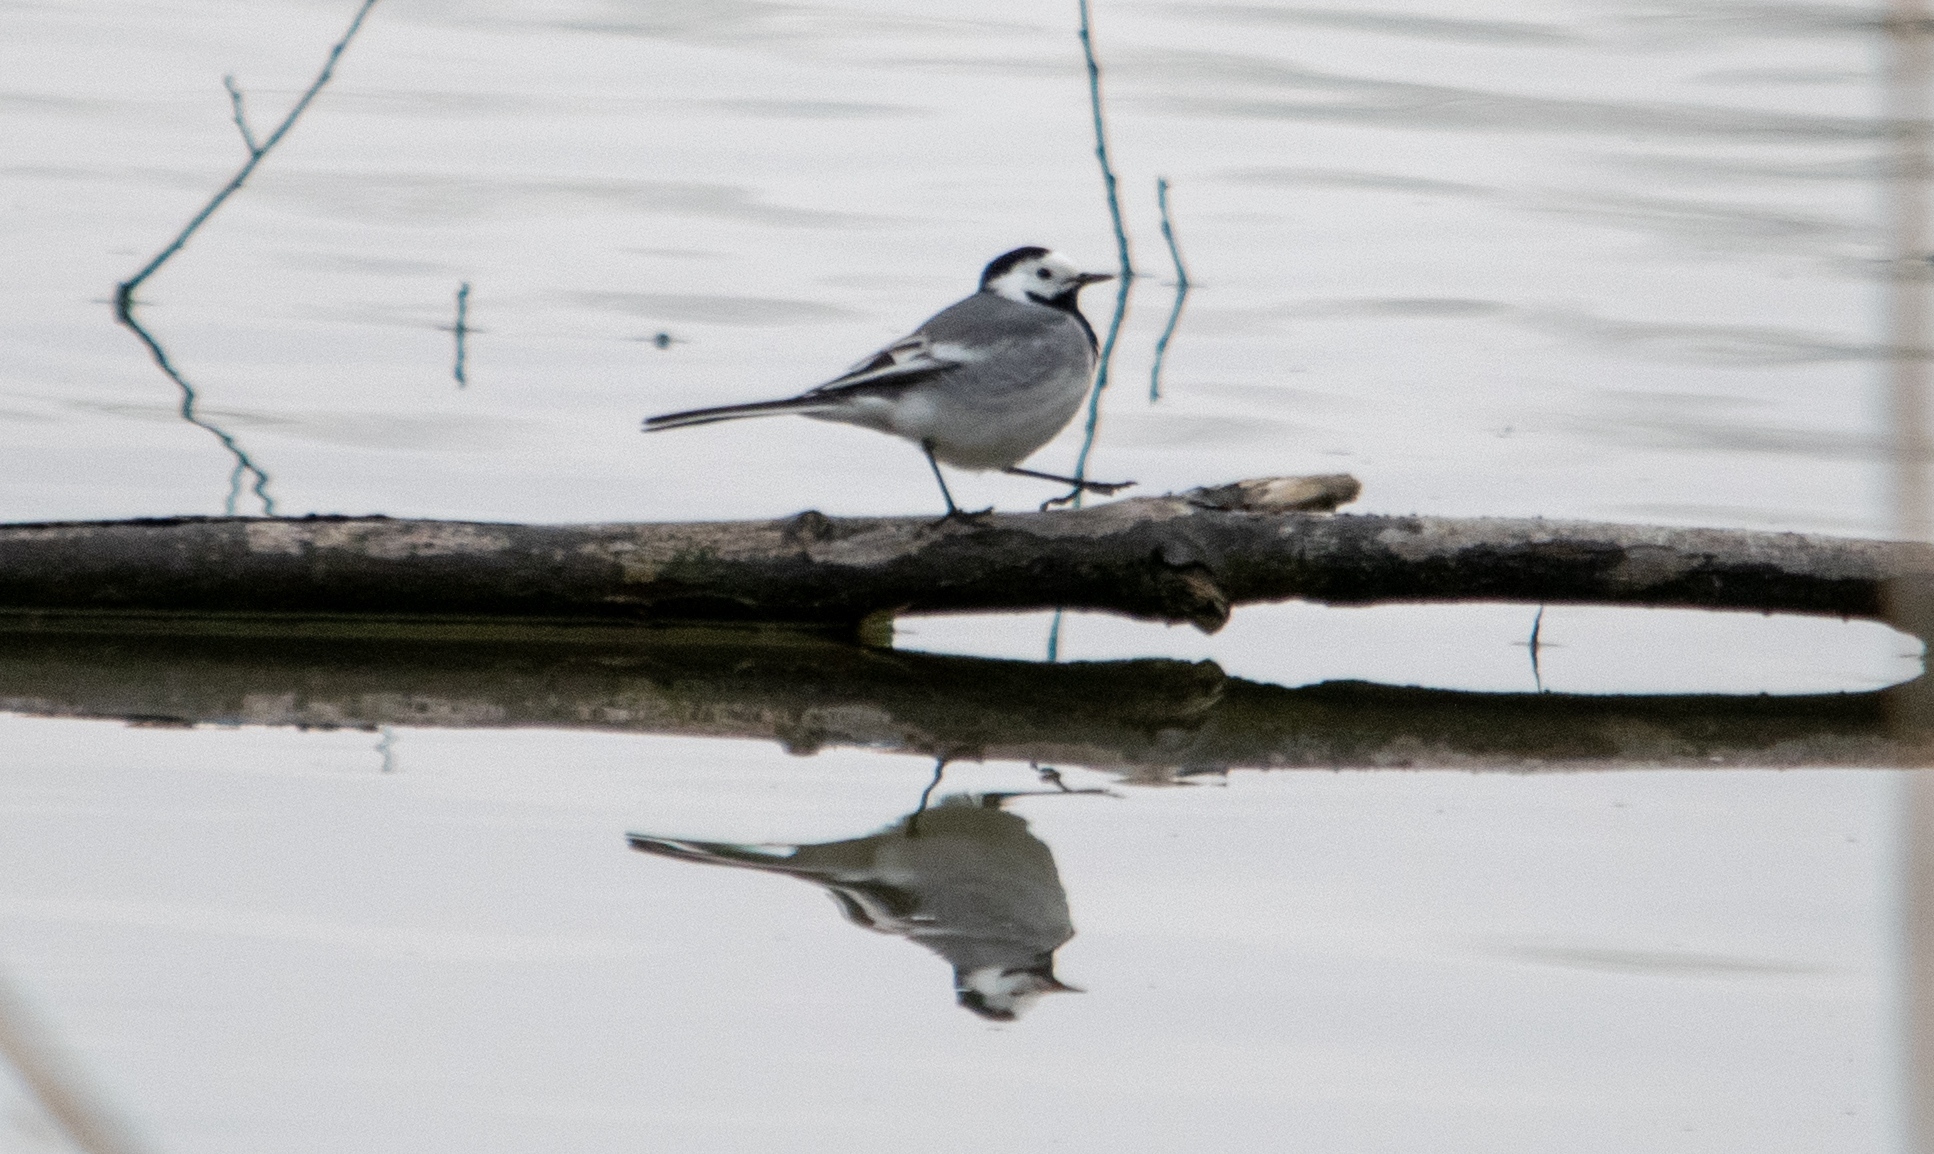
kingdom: Animalia
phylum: Chordata
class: Aves
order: Passeriformes
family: Motacillidae
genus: Motacilla
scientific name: Motacilla alba
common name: White wagtail
